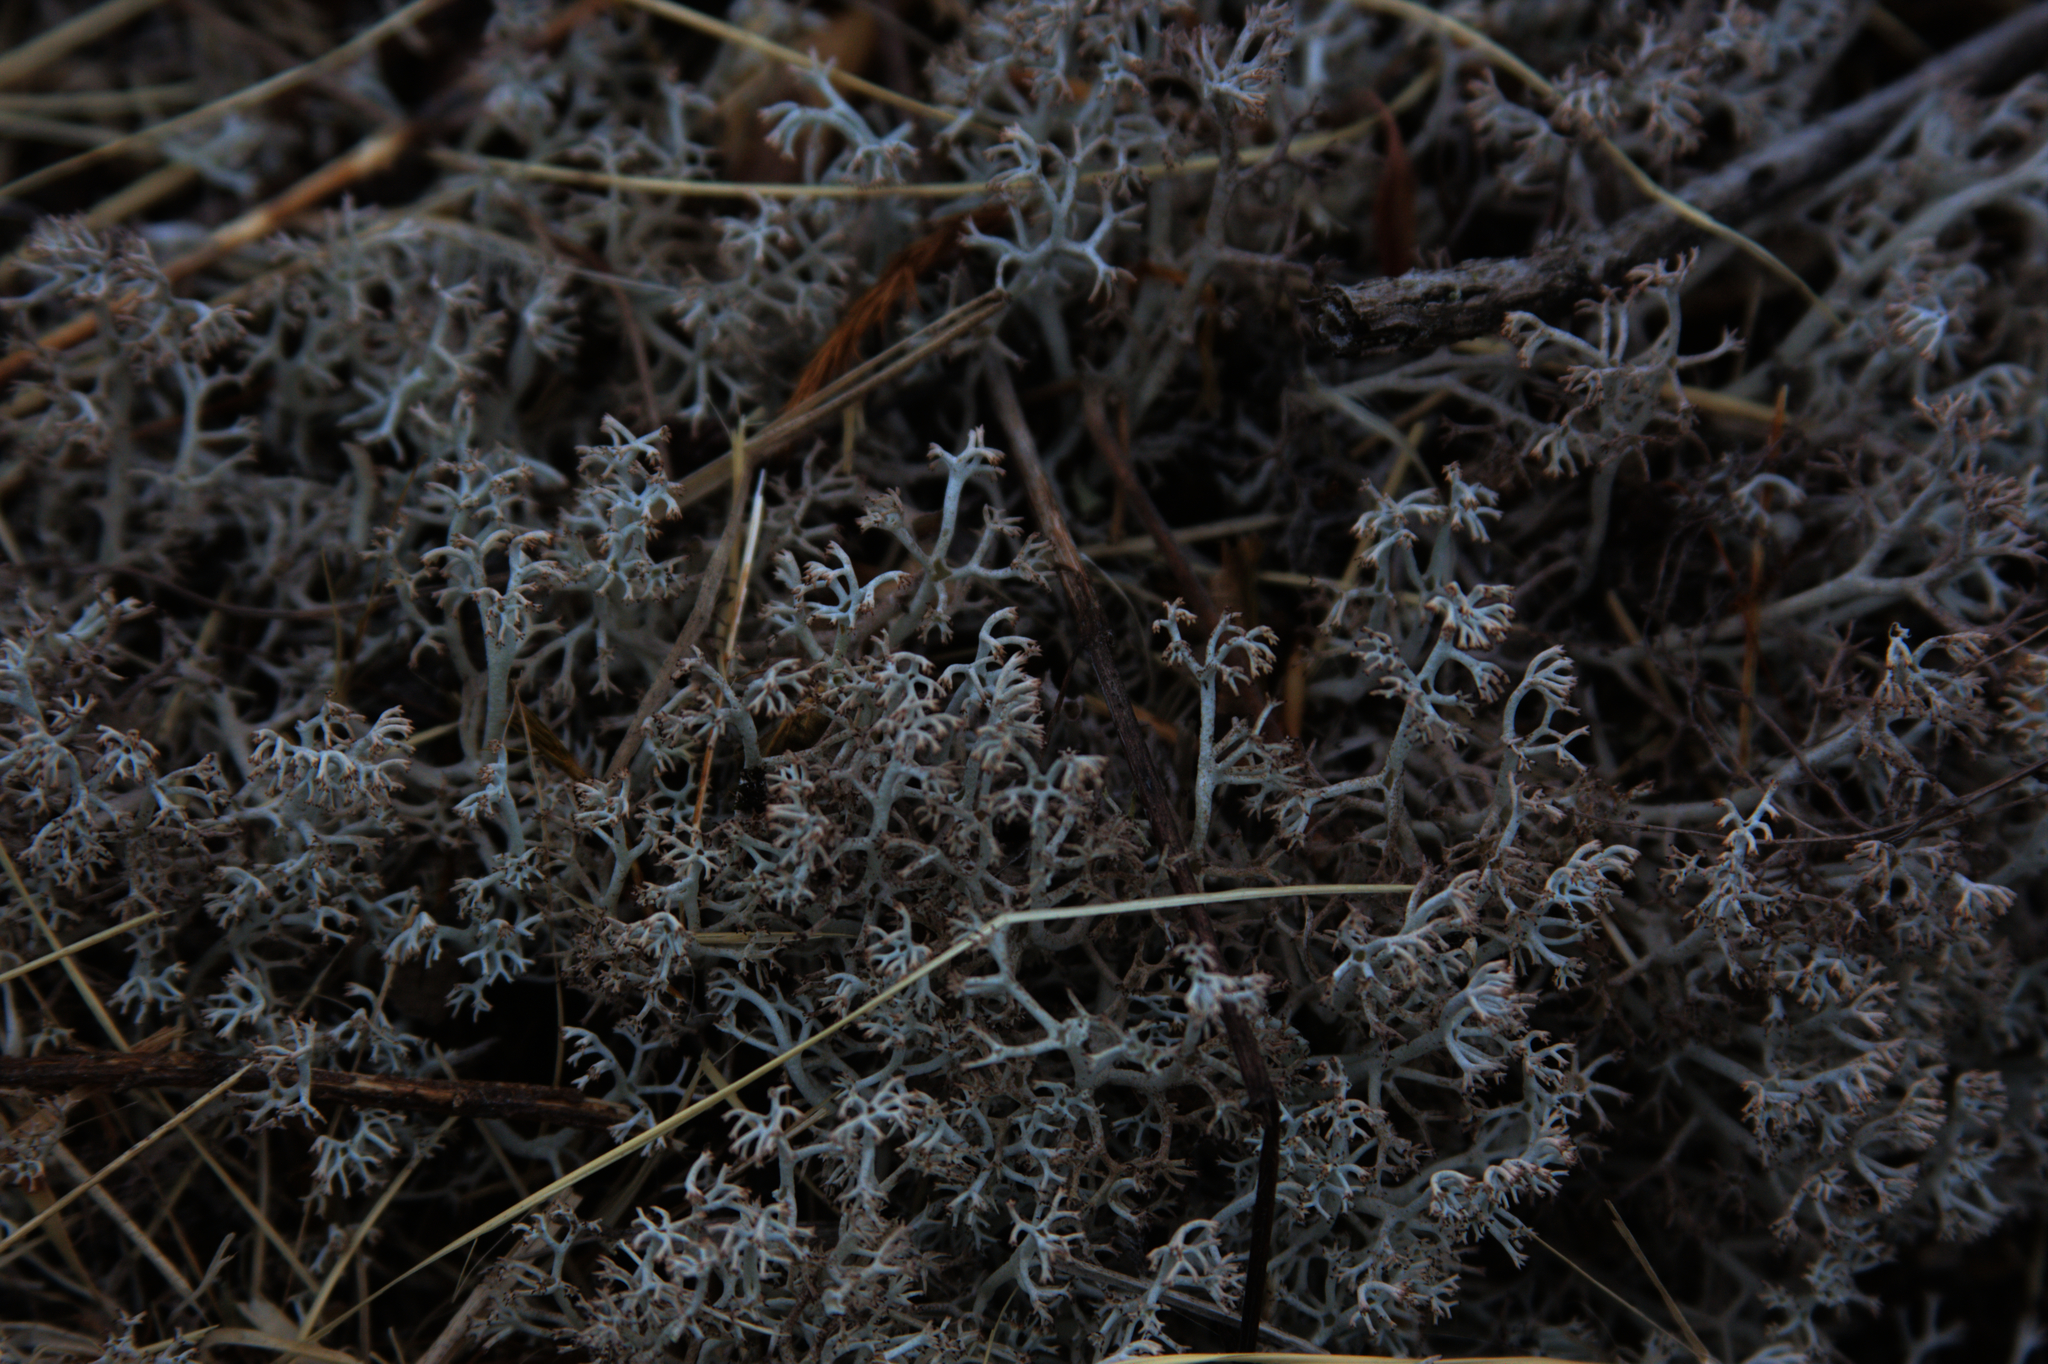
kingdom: Fungi
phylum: Ascomycota
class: Lecanoromycetes
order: Lecanorales
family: Cladoniaceae
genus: Cladonia
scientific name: Cladonia rangiferina
